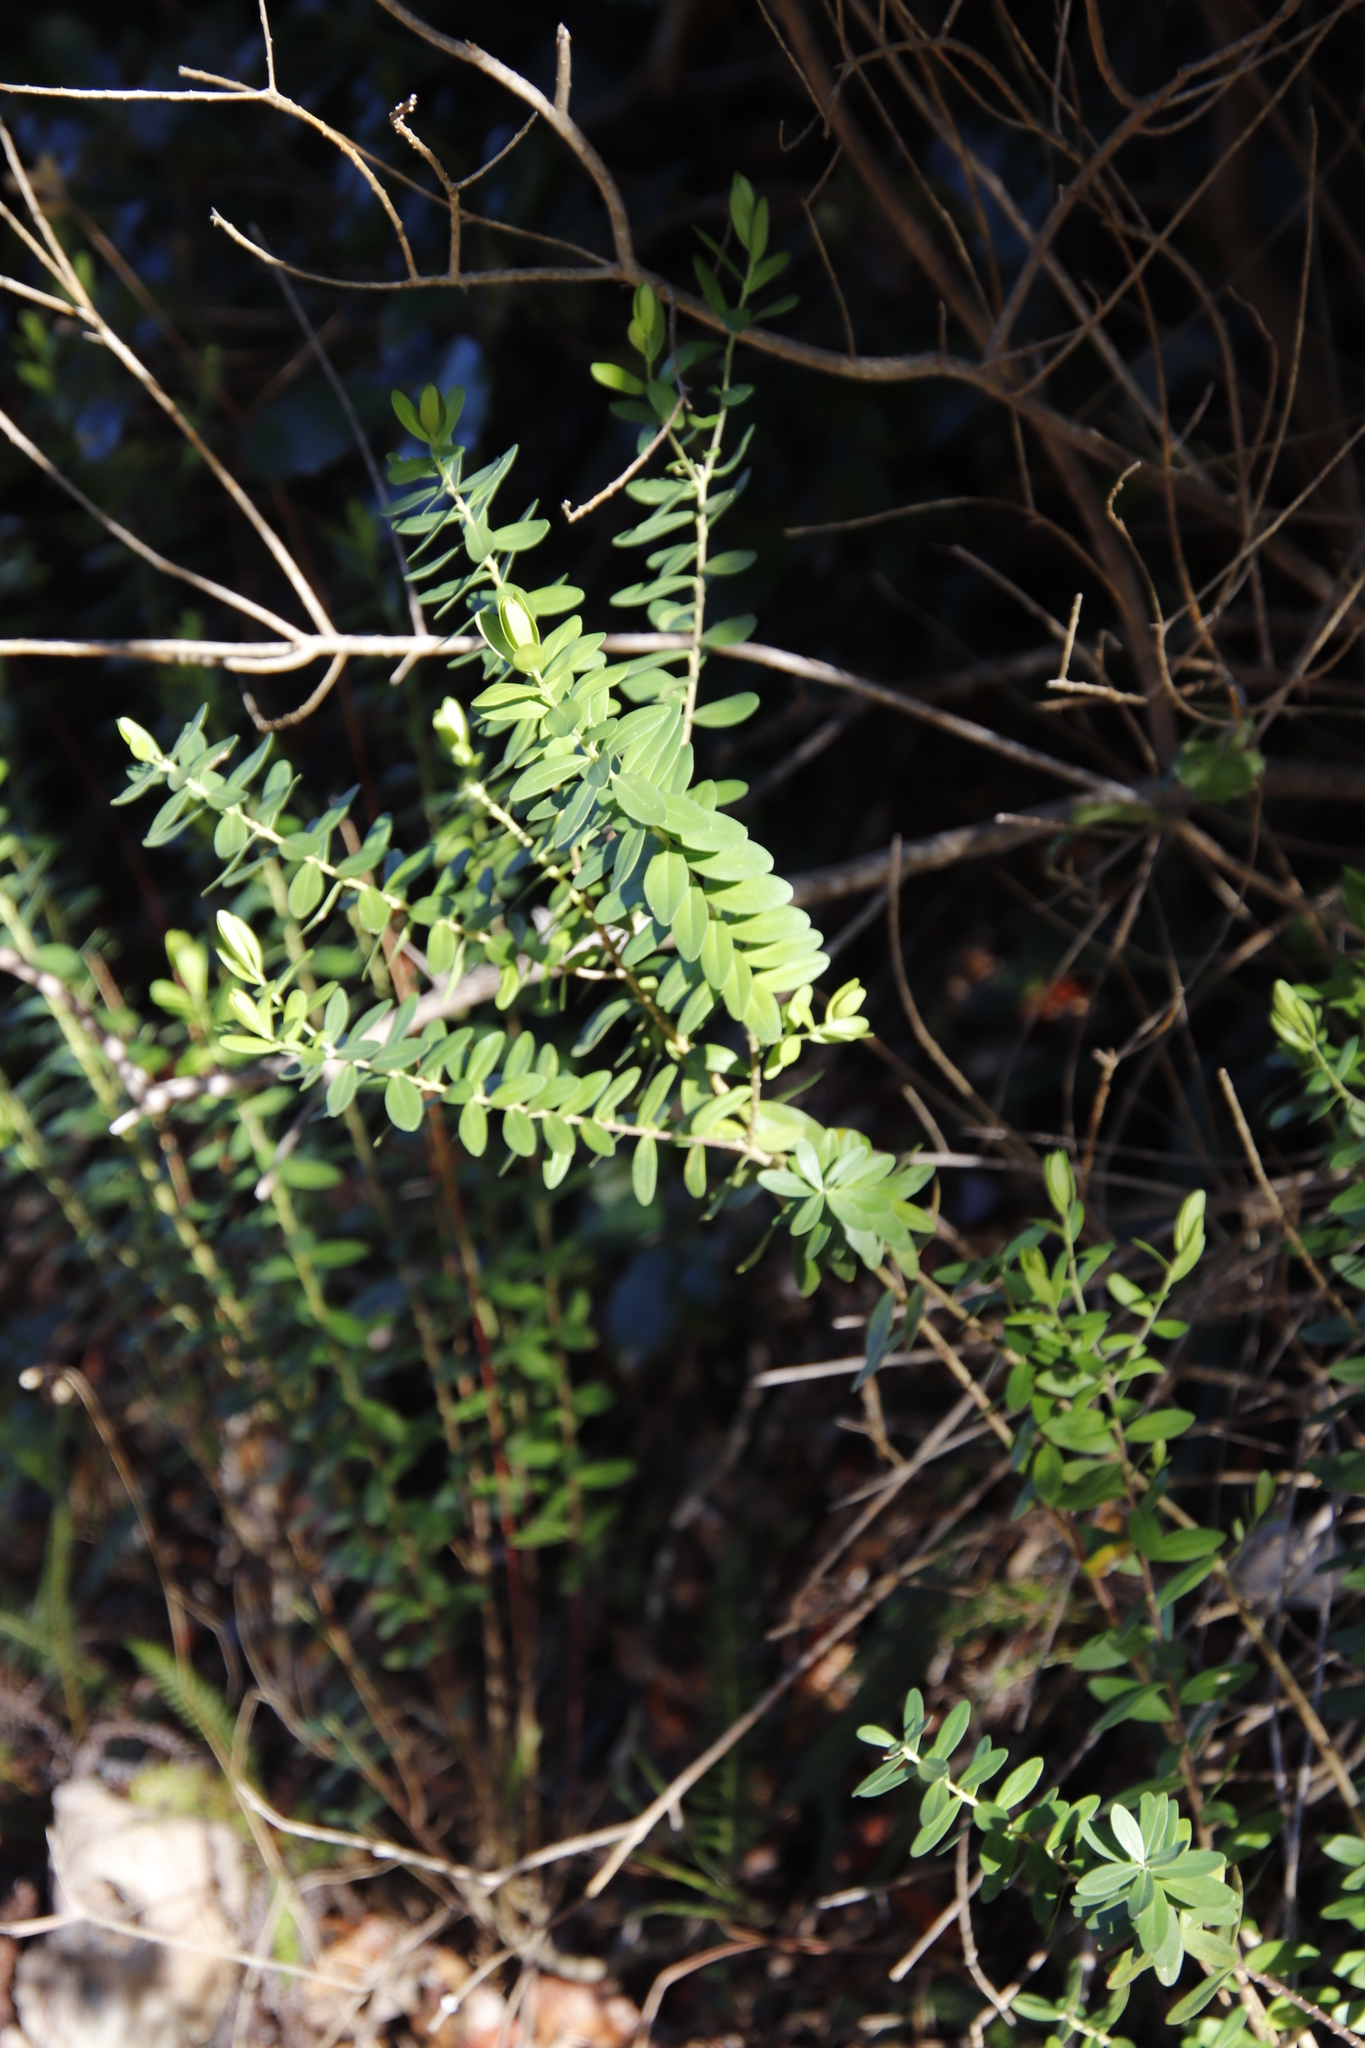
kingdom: Plantae
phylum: Tracheophyta
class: Magnoliopsida
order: Fabales
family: Polygalaceae
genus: Polygala
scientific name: Polygala myrtifolia
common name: Myrtle-leaf milkwort
